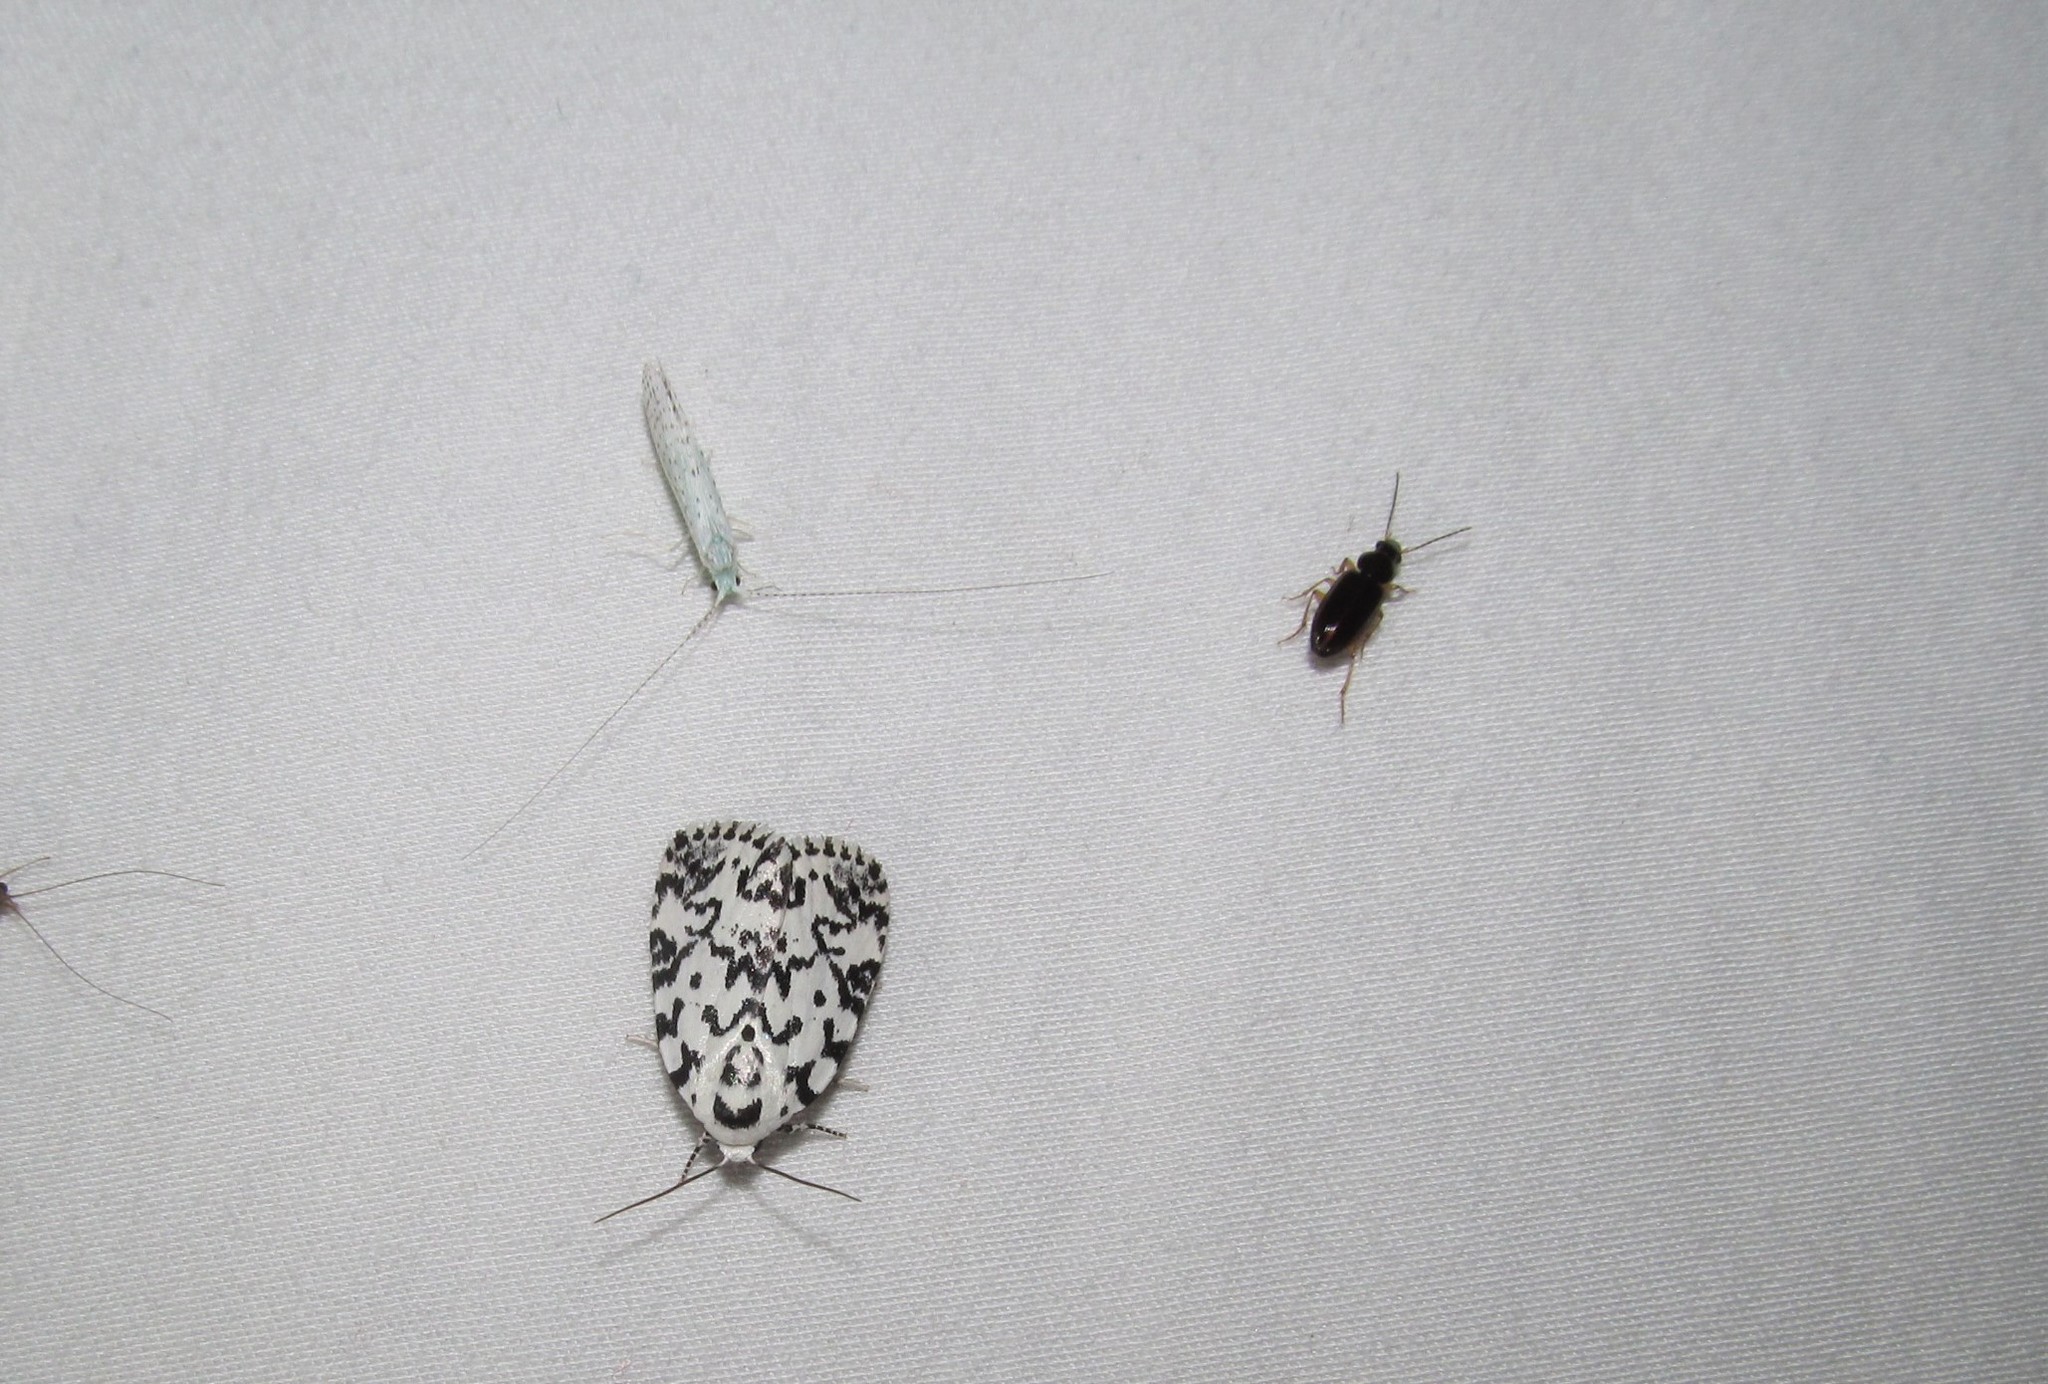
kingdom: Animalia
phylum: Arthropoda
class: Insecta
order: Lepidoptera
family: Noctuidae
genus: Polygrammate
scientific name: Polygrammate hebraeicum
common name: Hebrew moth
